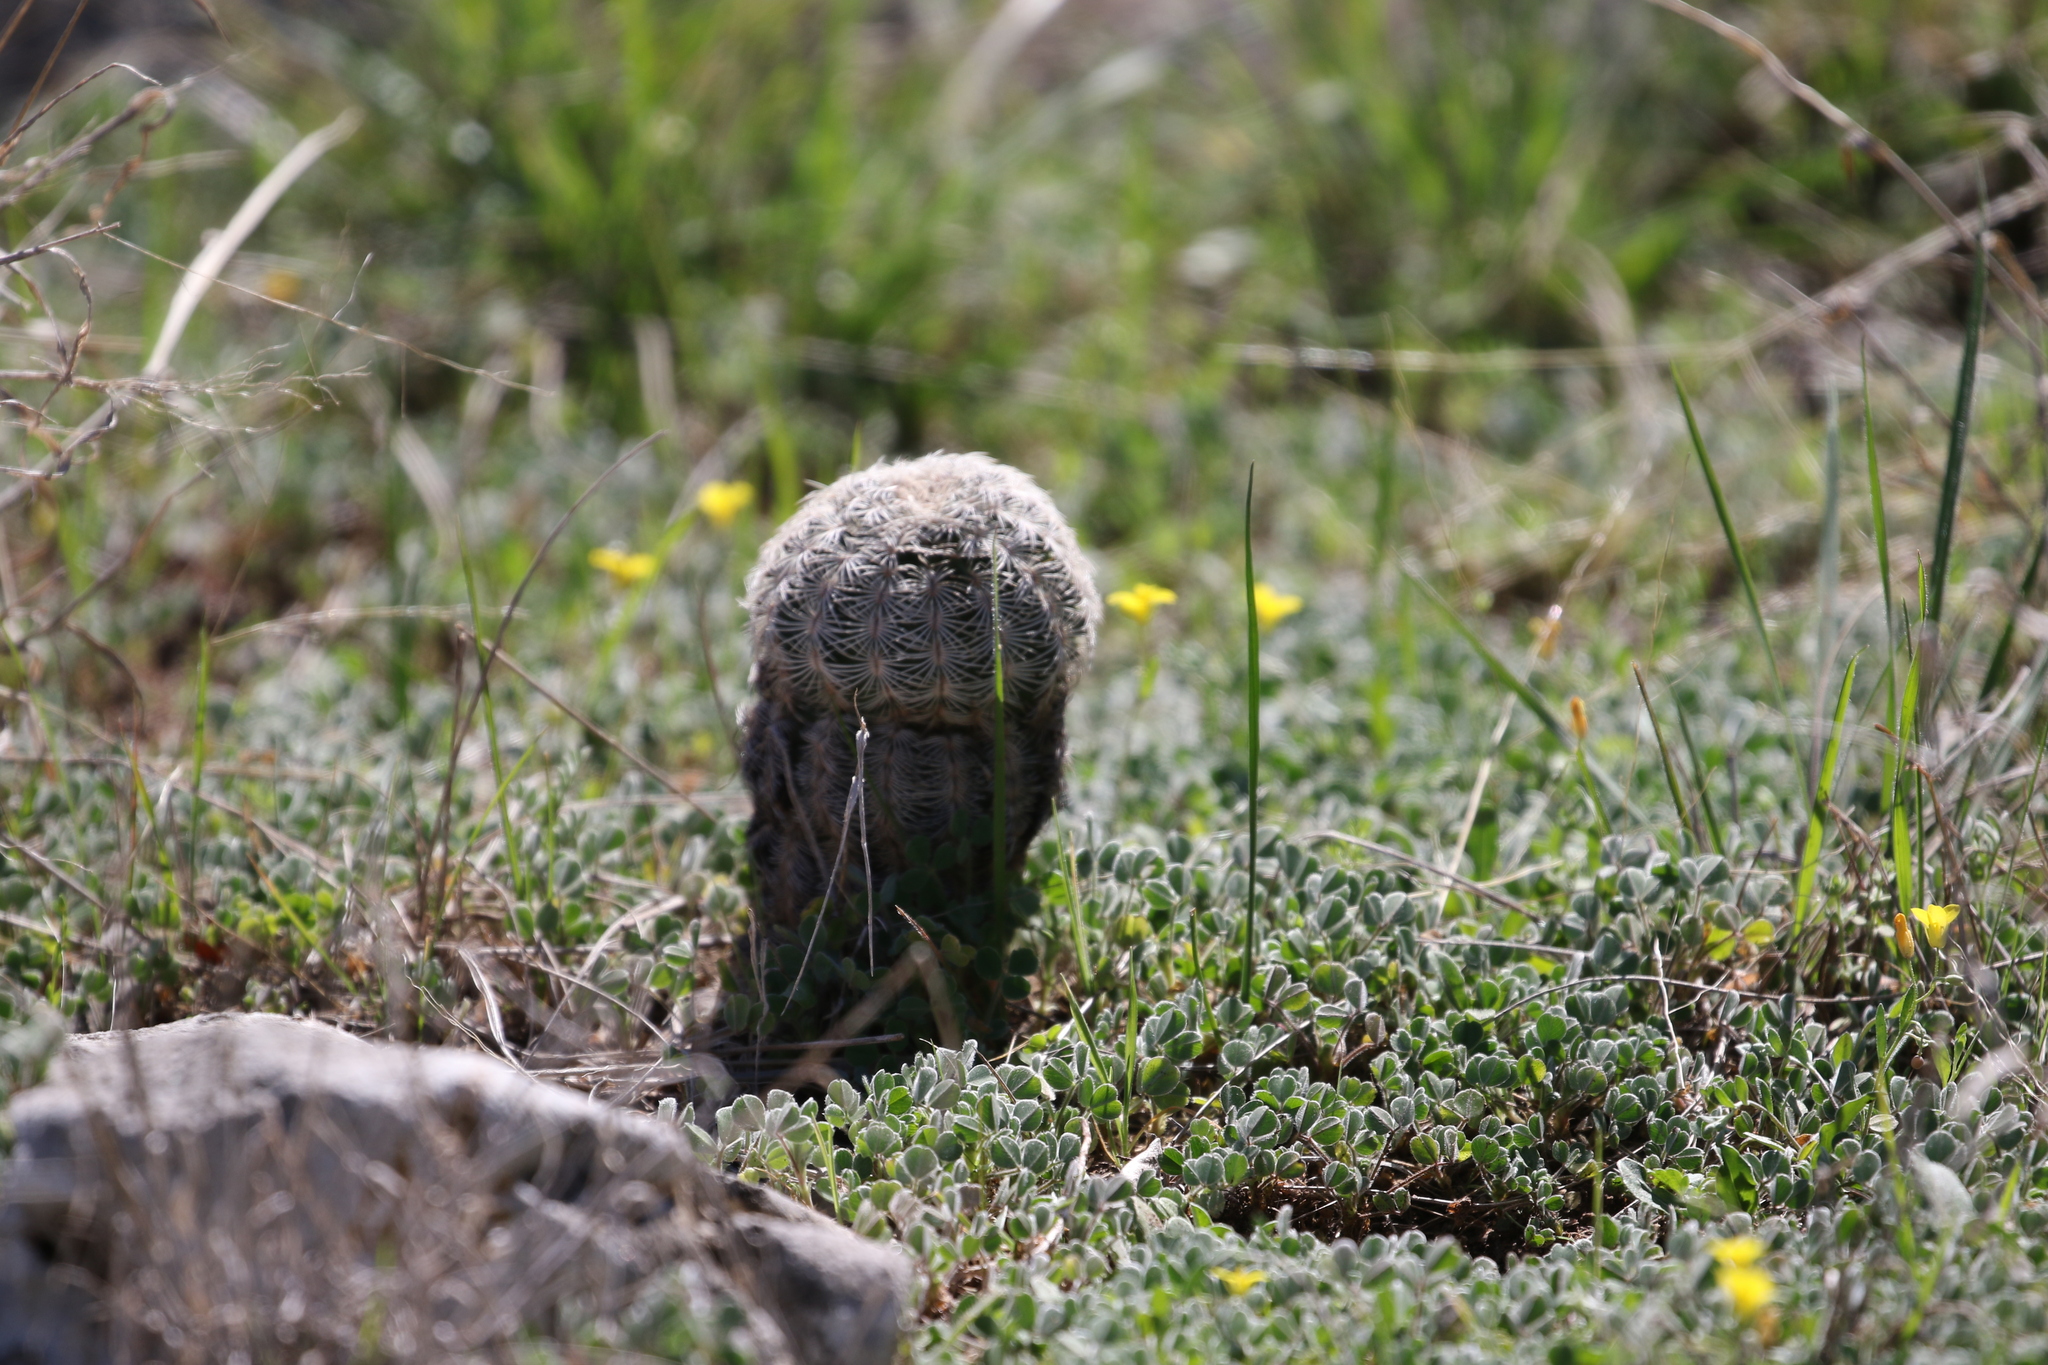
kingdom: Plantae
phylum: Tracheophyta
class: Magnoliopsida
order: Caryophyllales
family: Cactaceae
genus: Echinocereus
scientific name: Echinocereus reichenbachii
